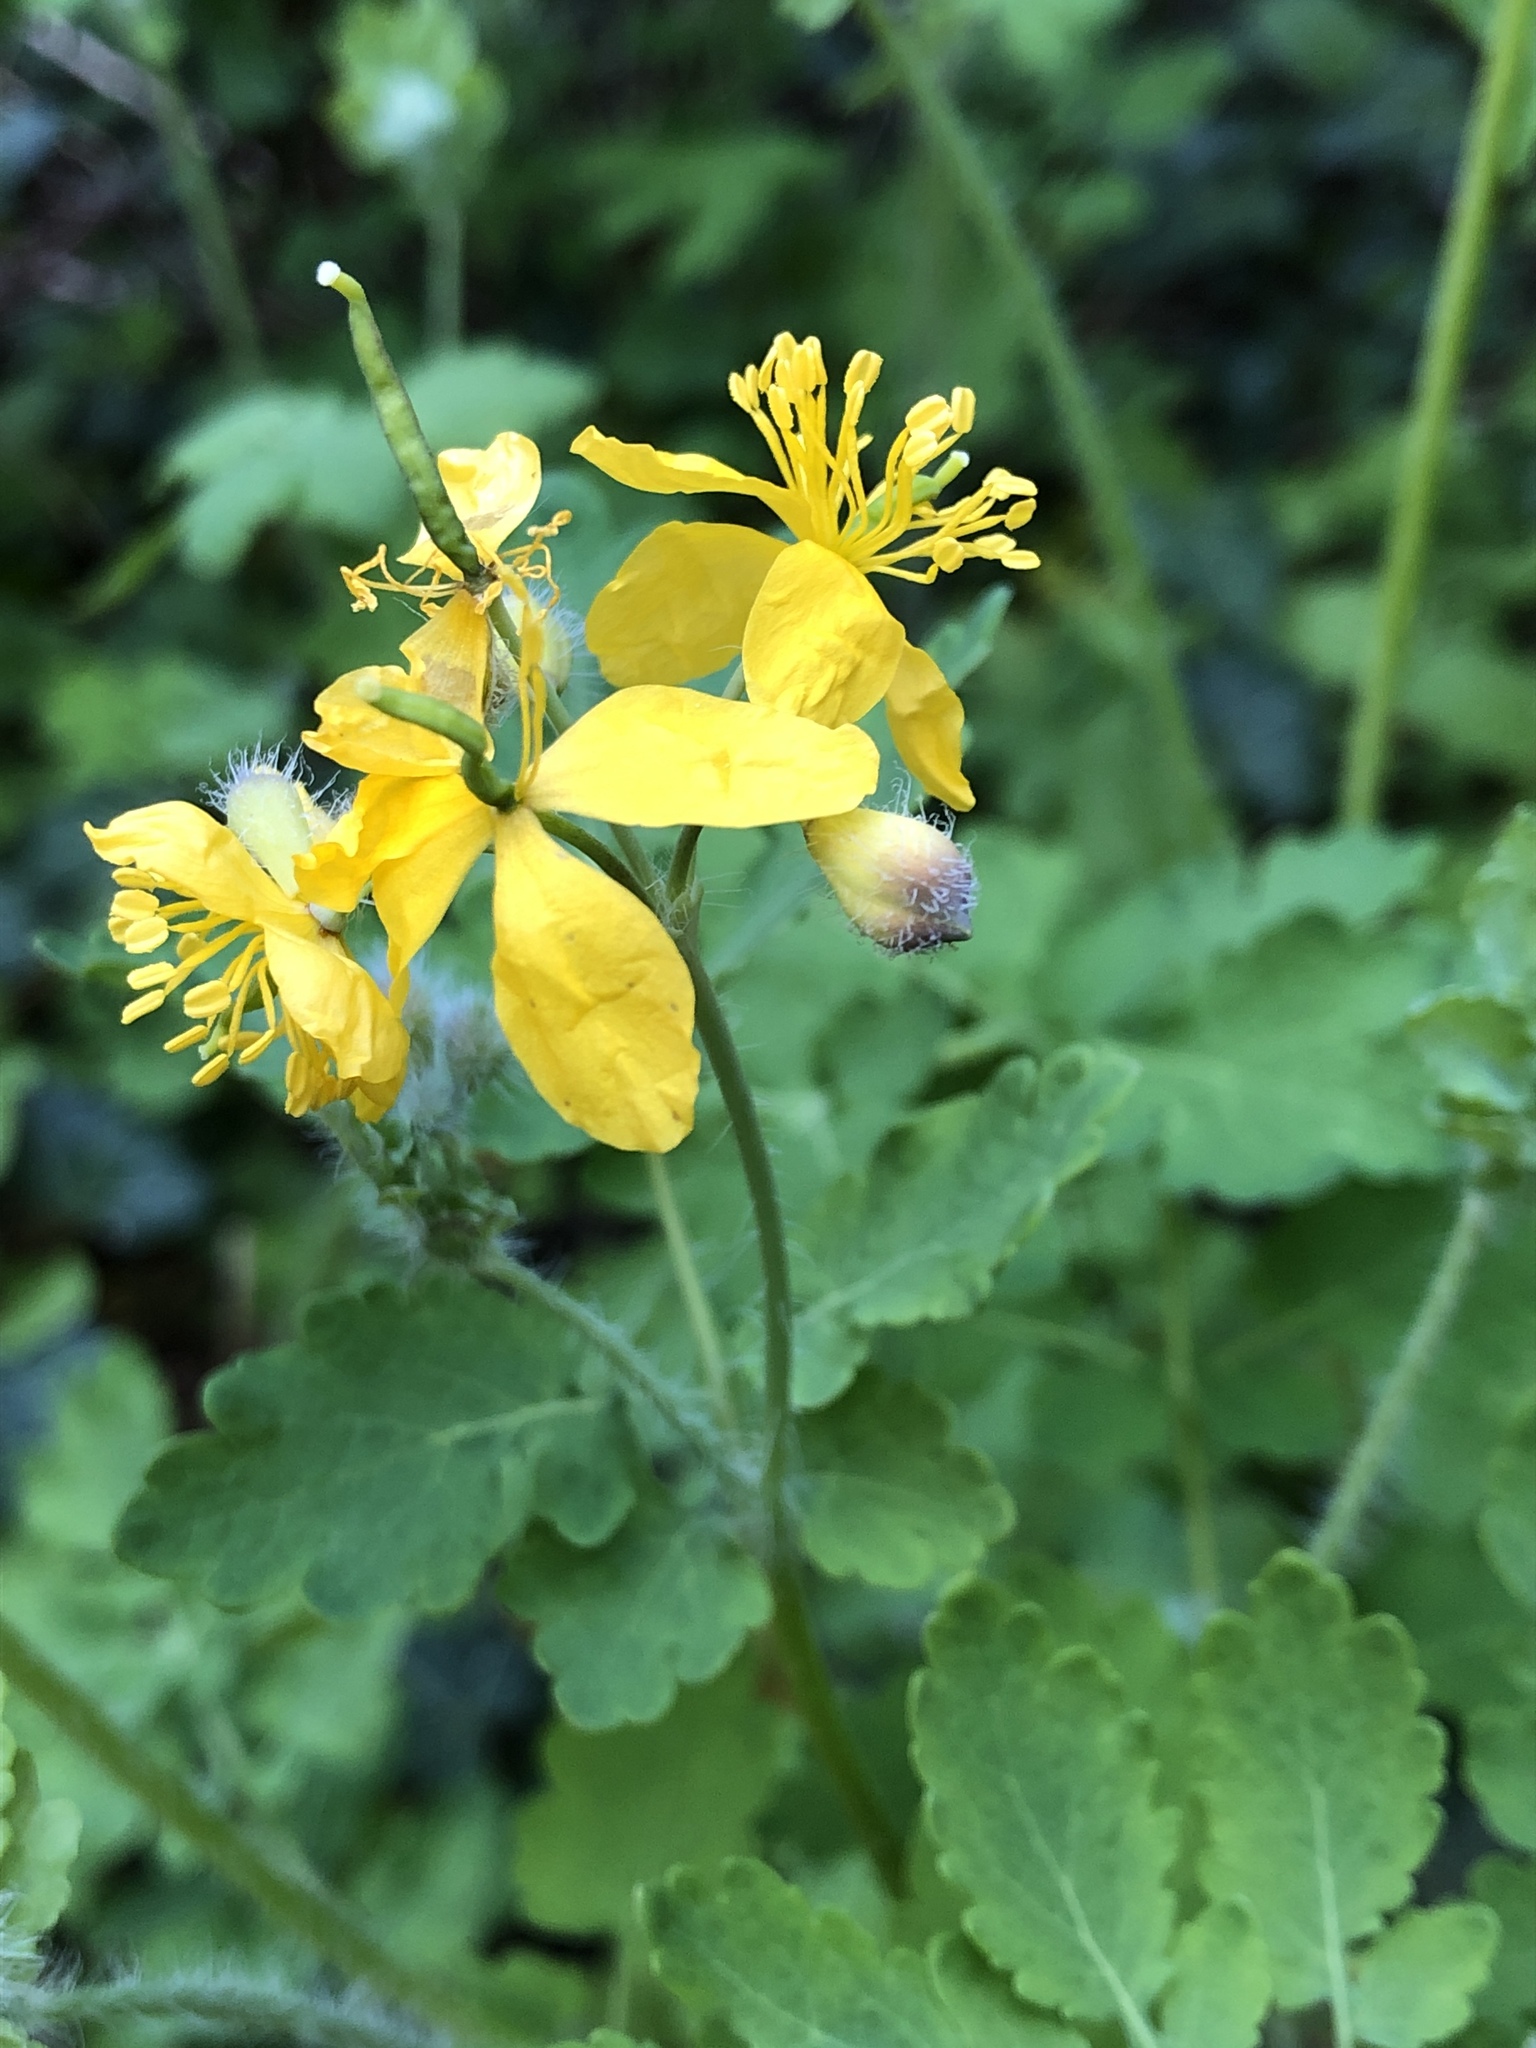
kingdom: Plantae
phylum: Tracheophyta
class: Magnoliopsida
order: Ranunculales
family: Papaveraceae
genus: Chelidonium
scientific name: Chelidonium majus
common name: Greater celandine
